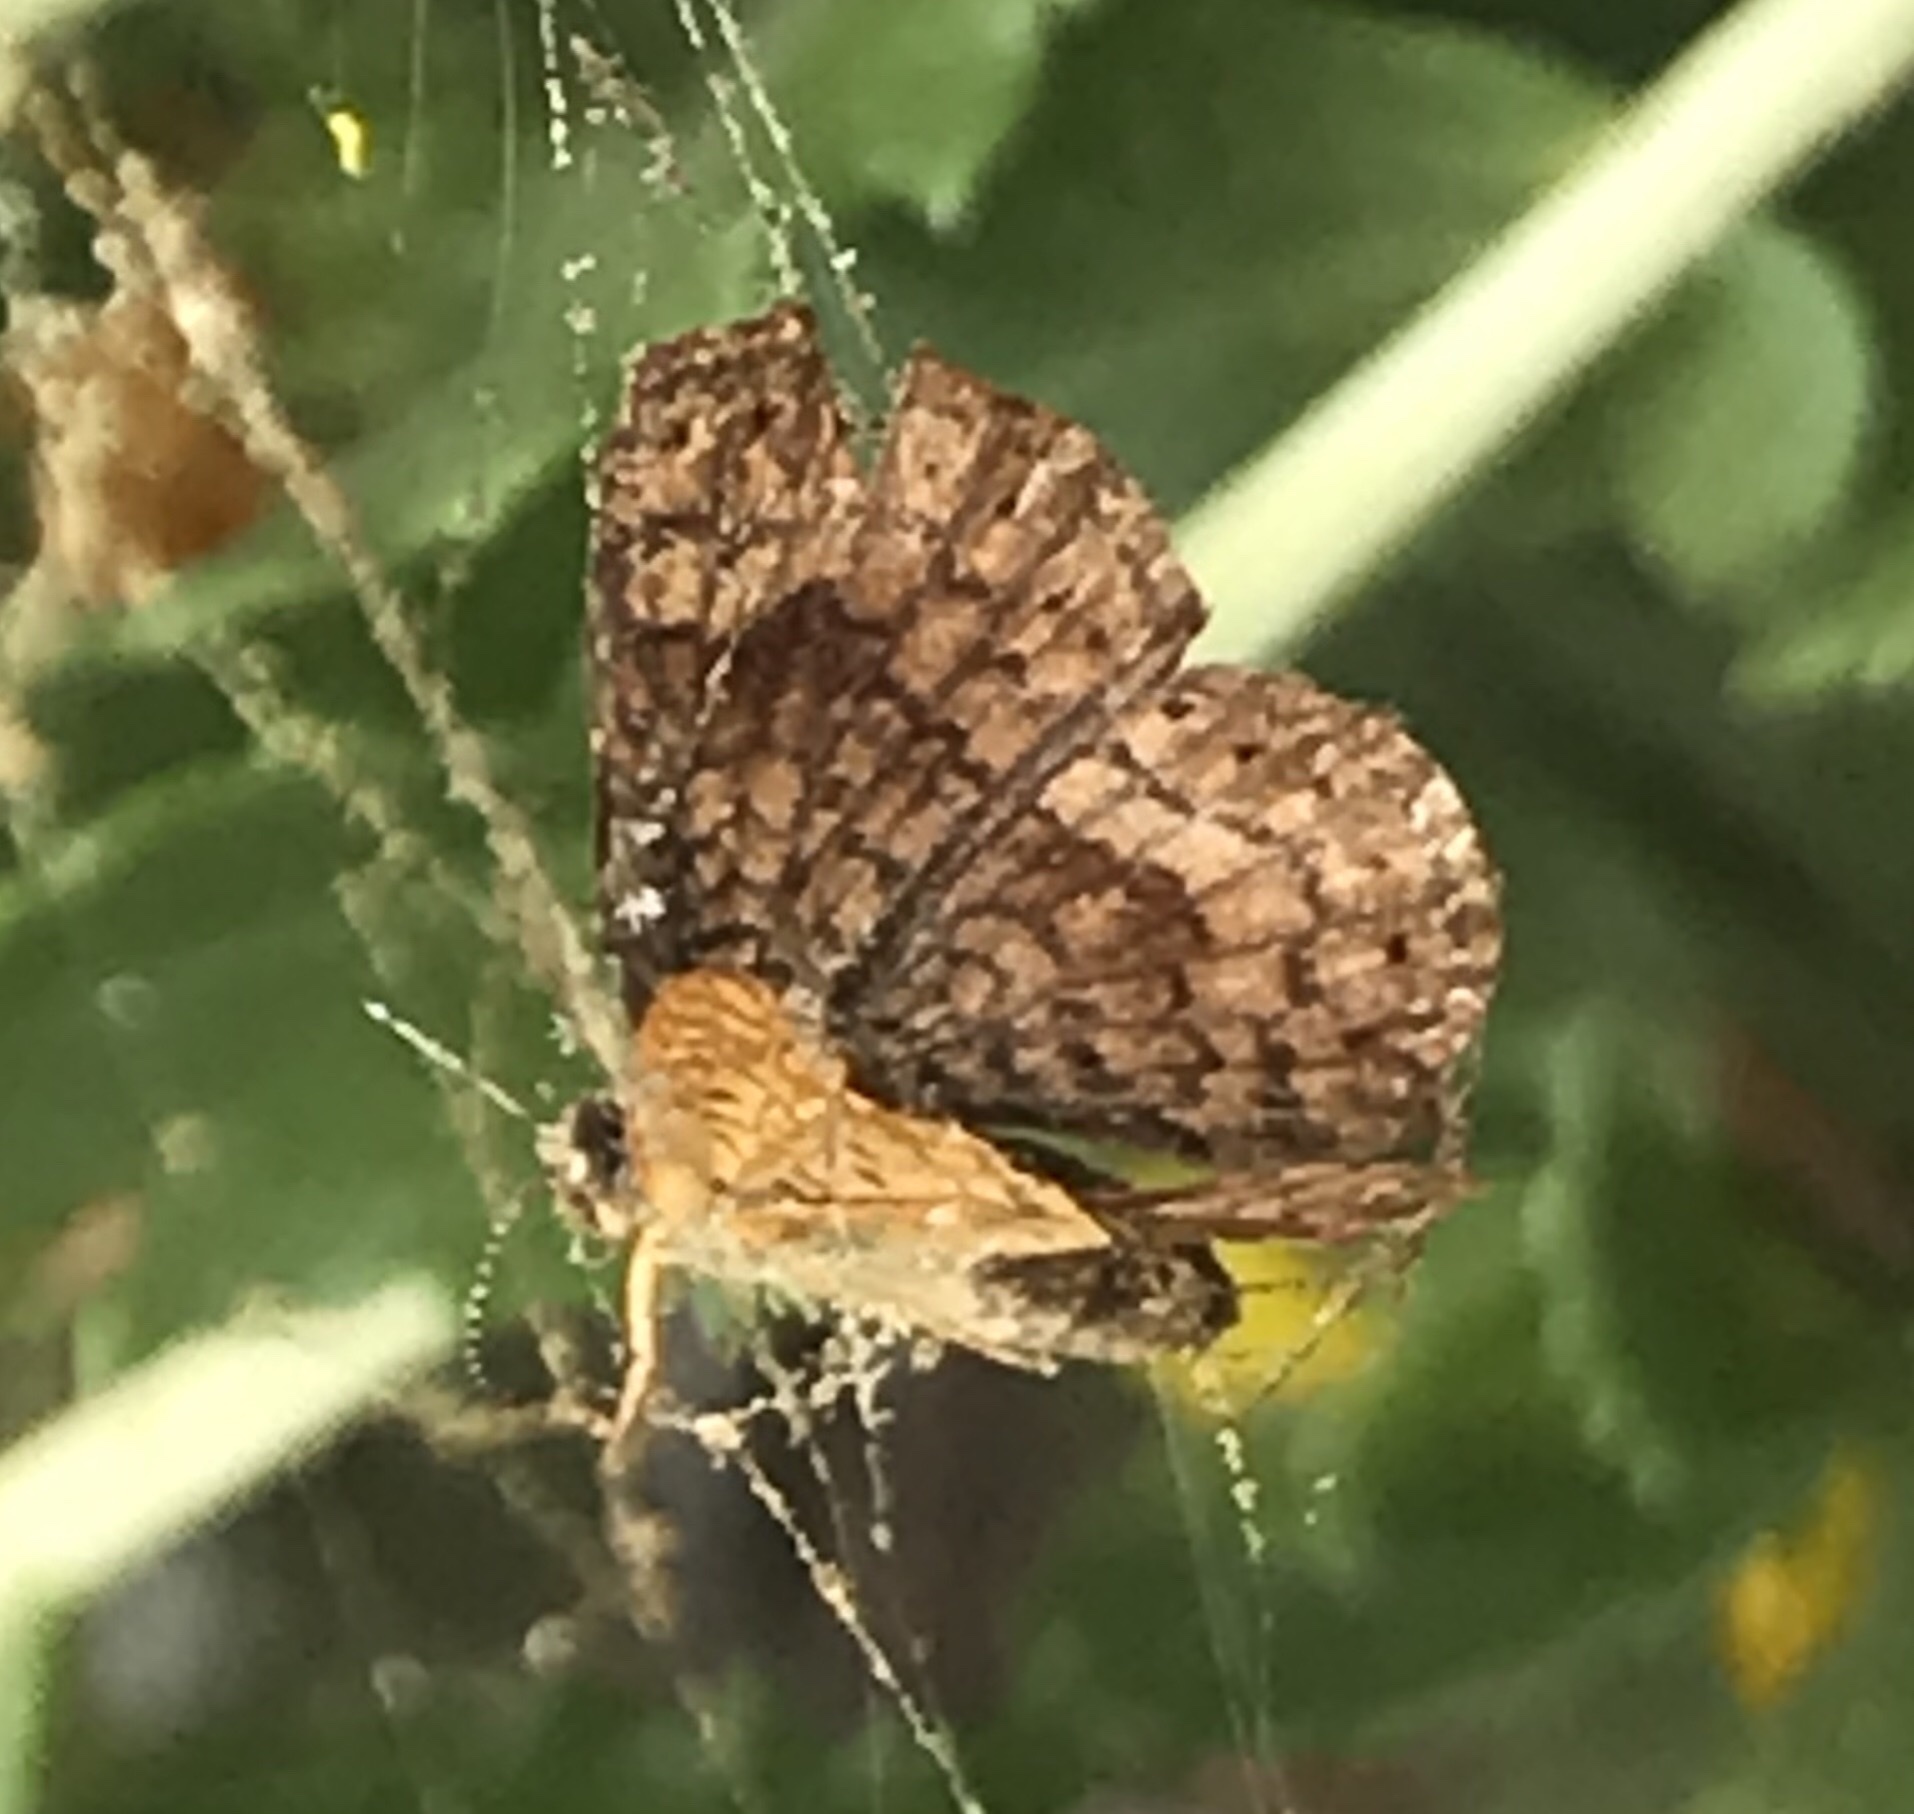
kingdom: Animalia
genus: Calephelis
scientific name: Calephelis nemesis
